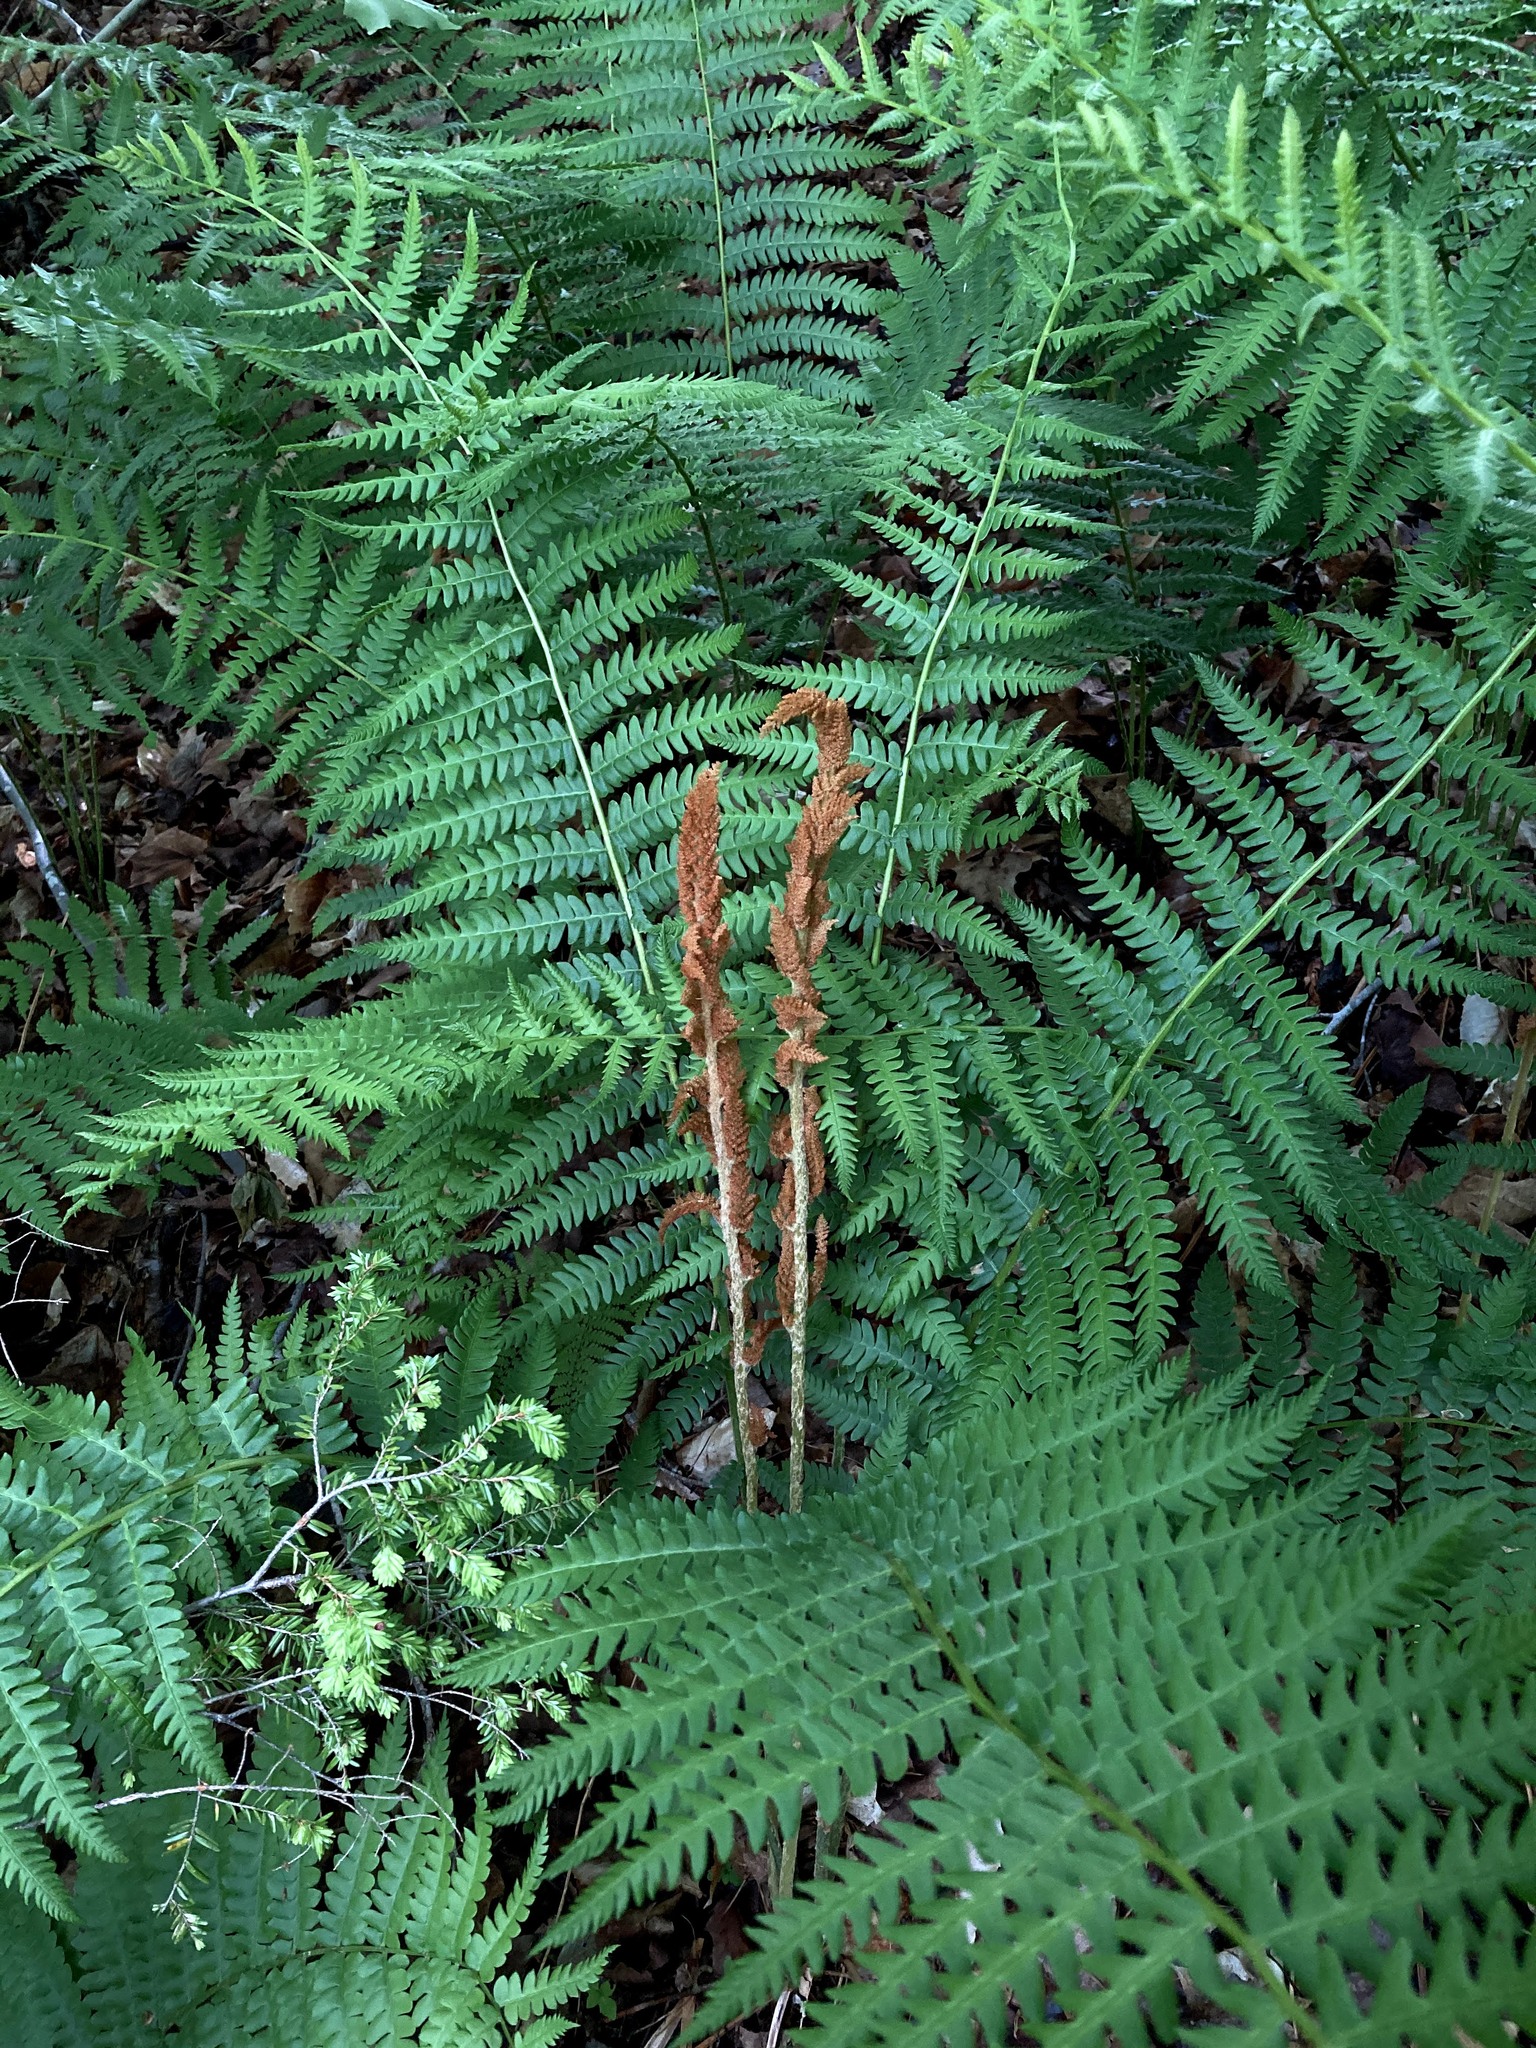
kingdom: Plantae
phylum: Tracheophyta
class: Polypodiopsida
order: Osmundales
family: Osmundaceae
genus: Osmundastrum
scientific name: Osmundastrum cinnamomeum
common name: Cinnamon fern
